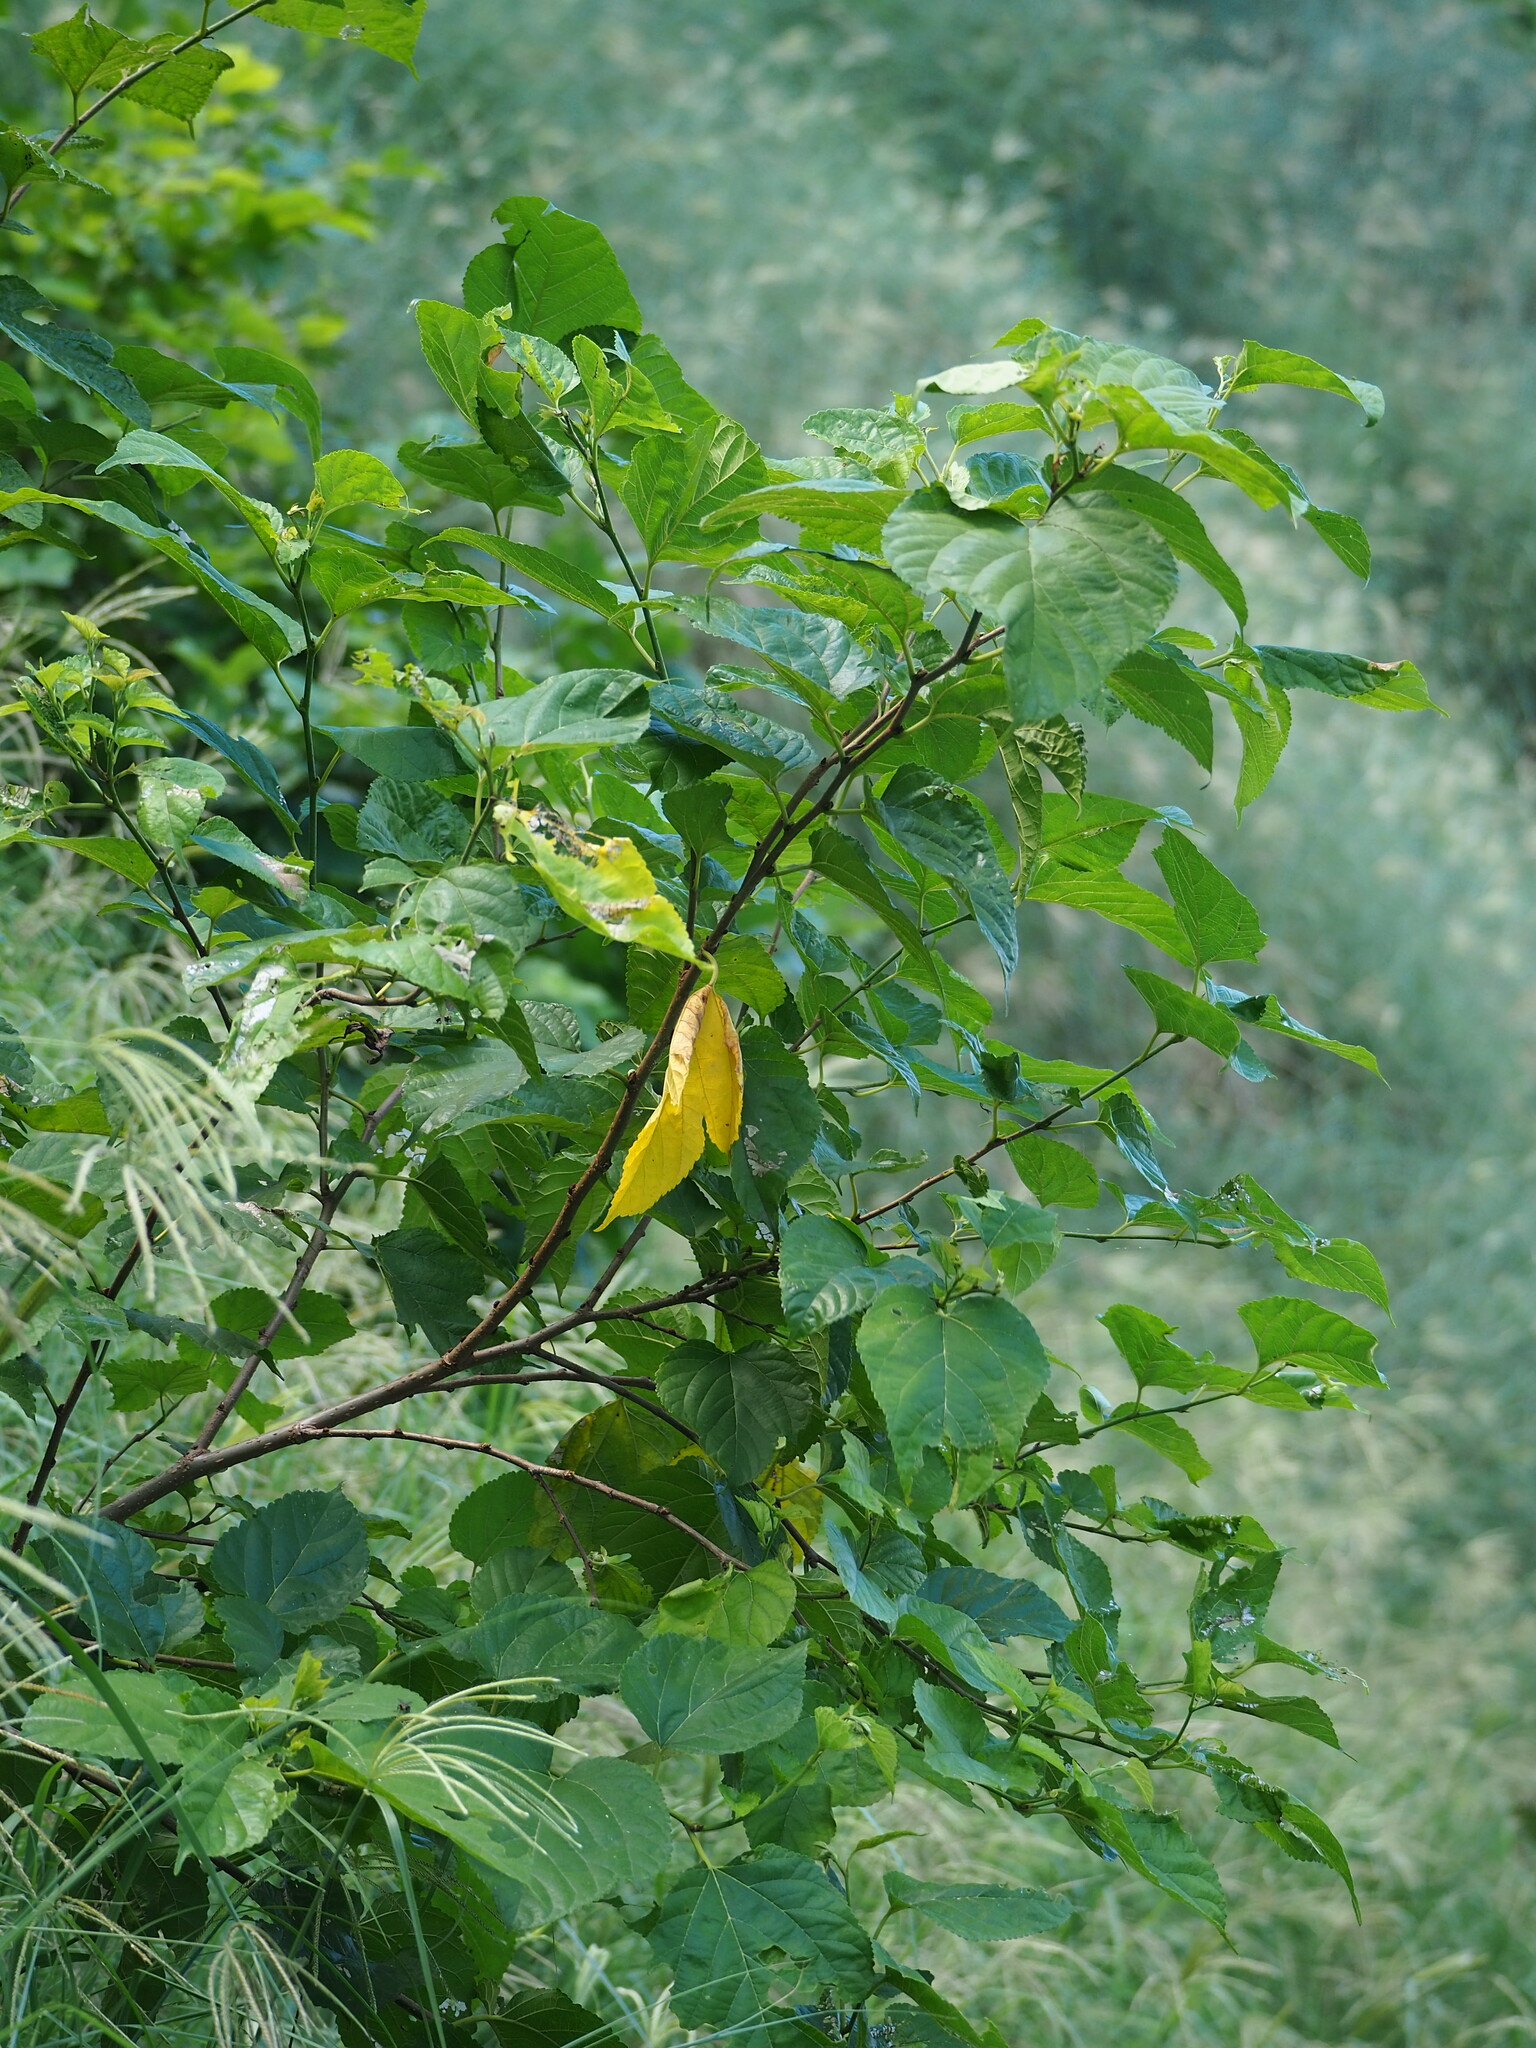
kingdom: Plantae
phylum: Tracheophyta
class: Magnoliopsida
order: Rosales
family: Moraceae
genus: Morus
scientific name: Morus indica
